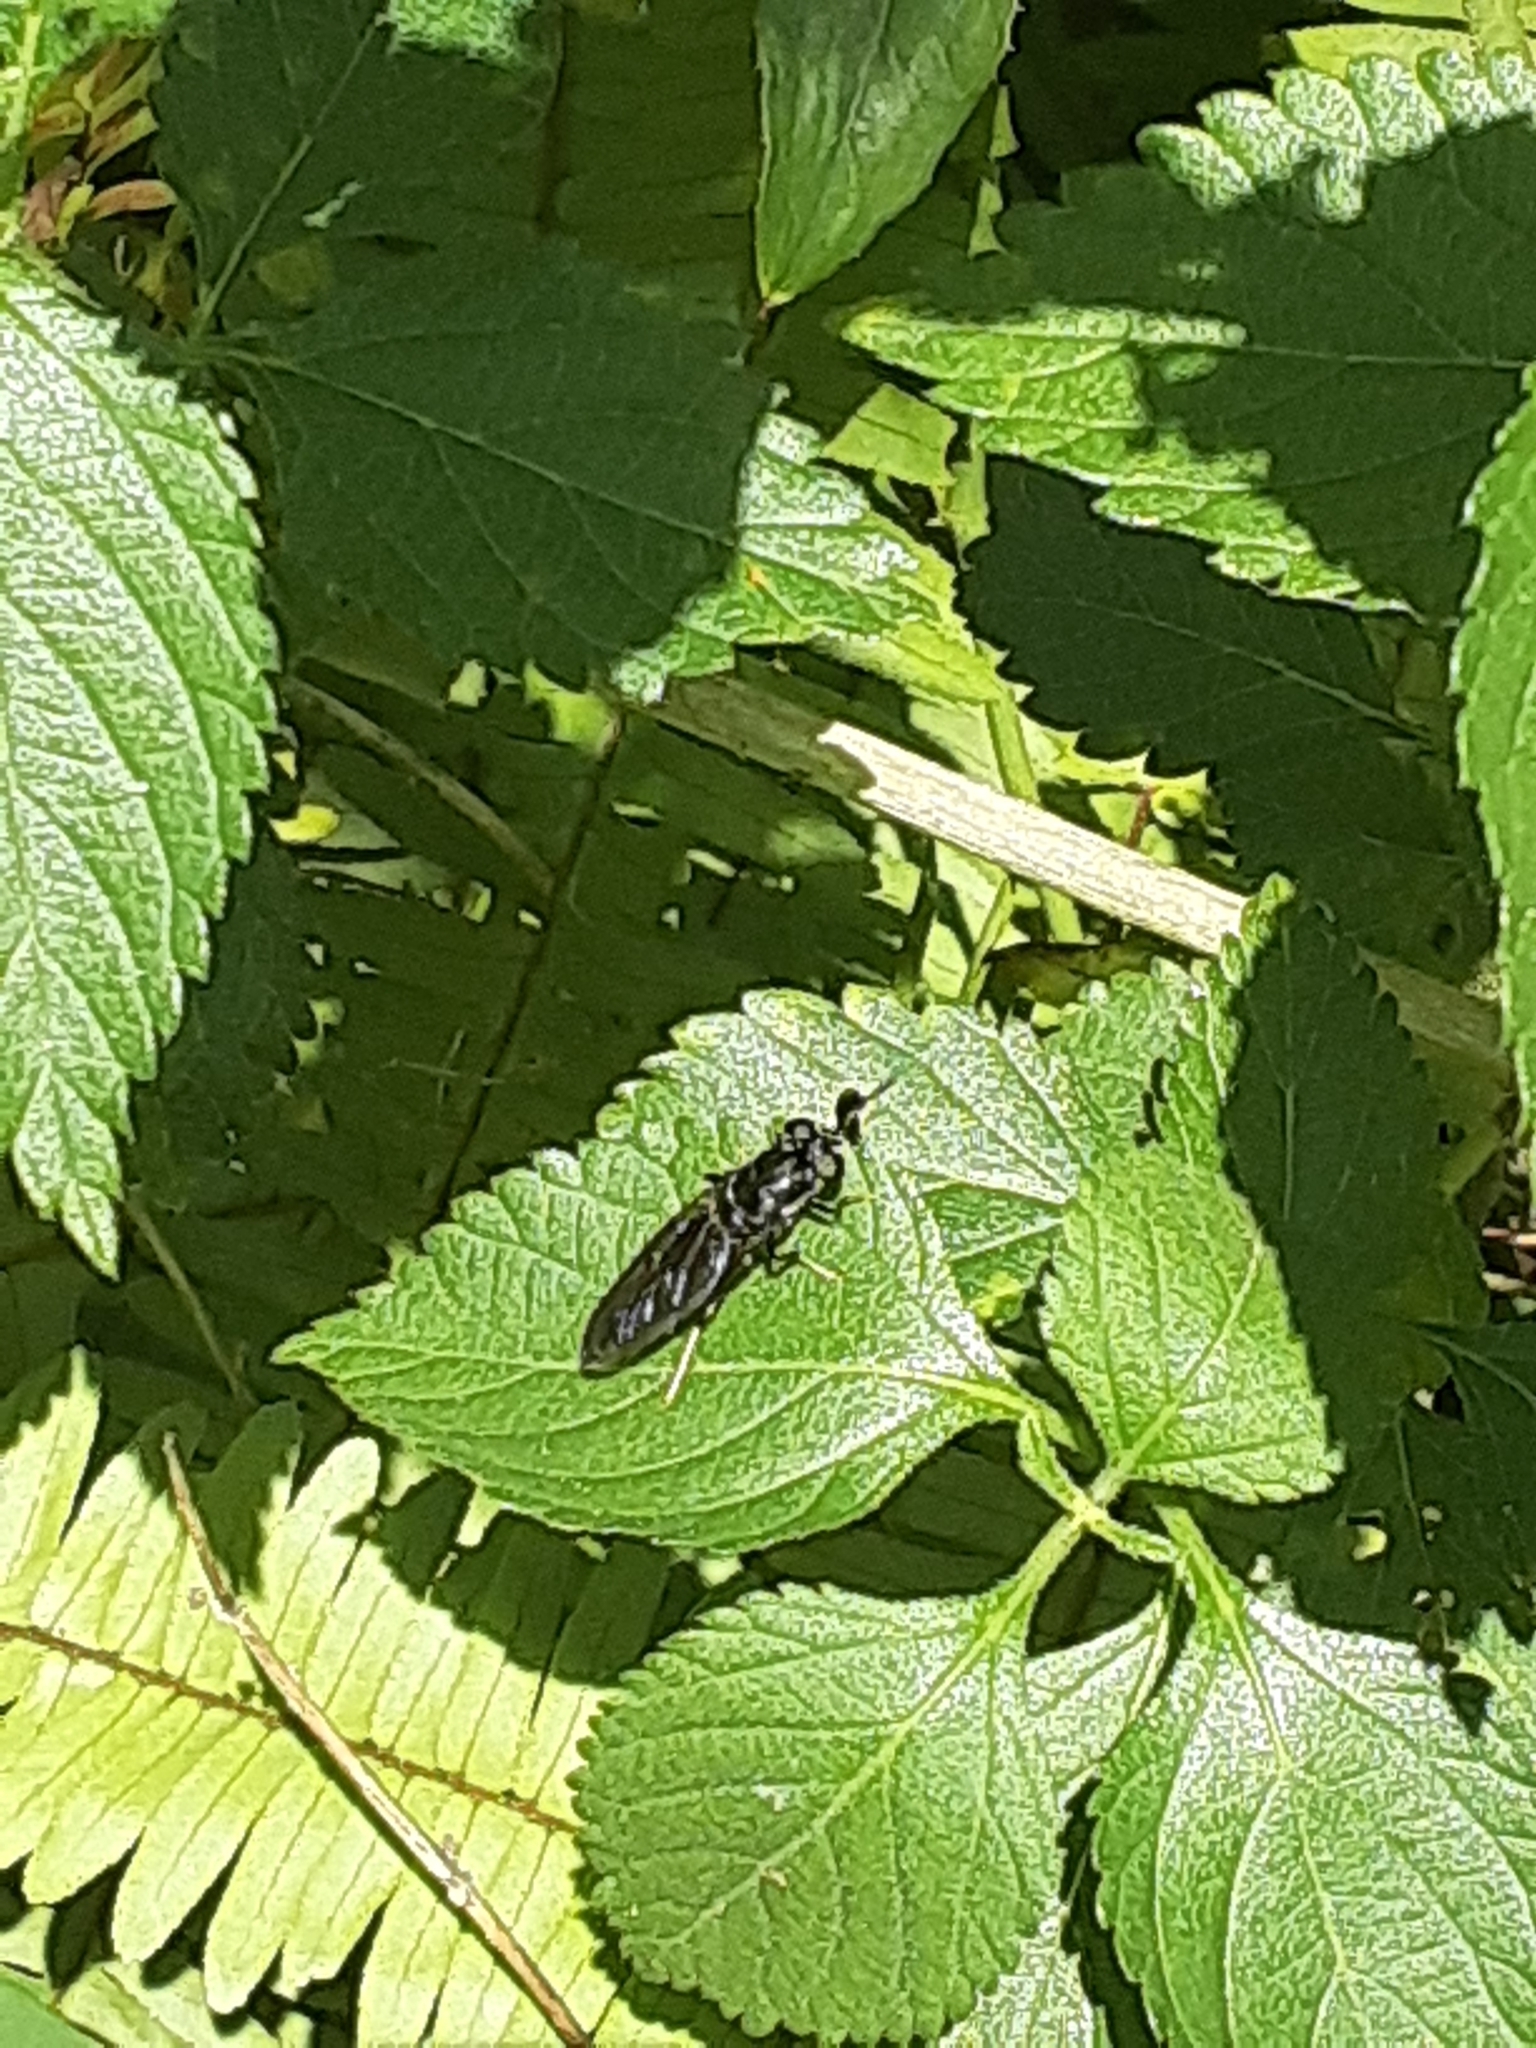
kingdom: Animalia
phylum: Arthropoda
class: Insecta
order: Diptera
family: Stratiomyidae
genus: Hermetia
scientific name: Hermetia illucens
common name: Black soldier fly
